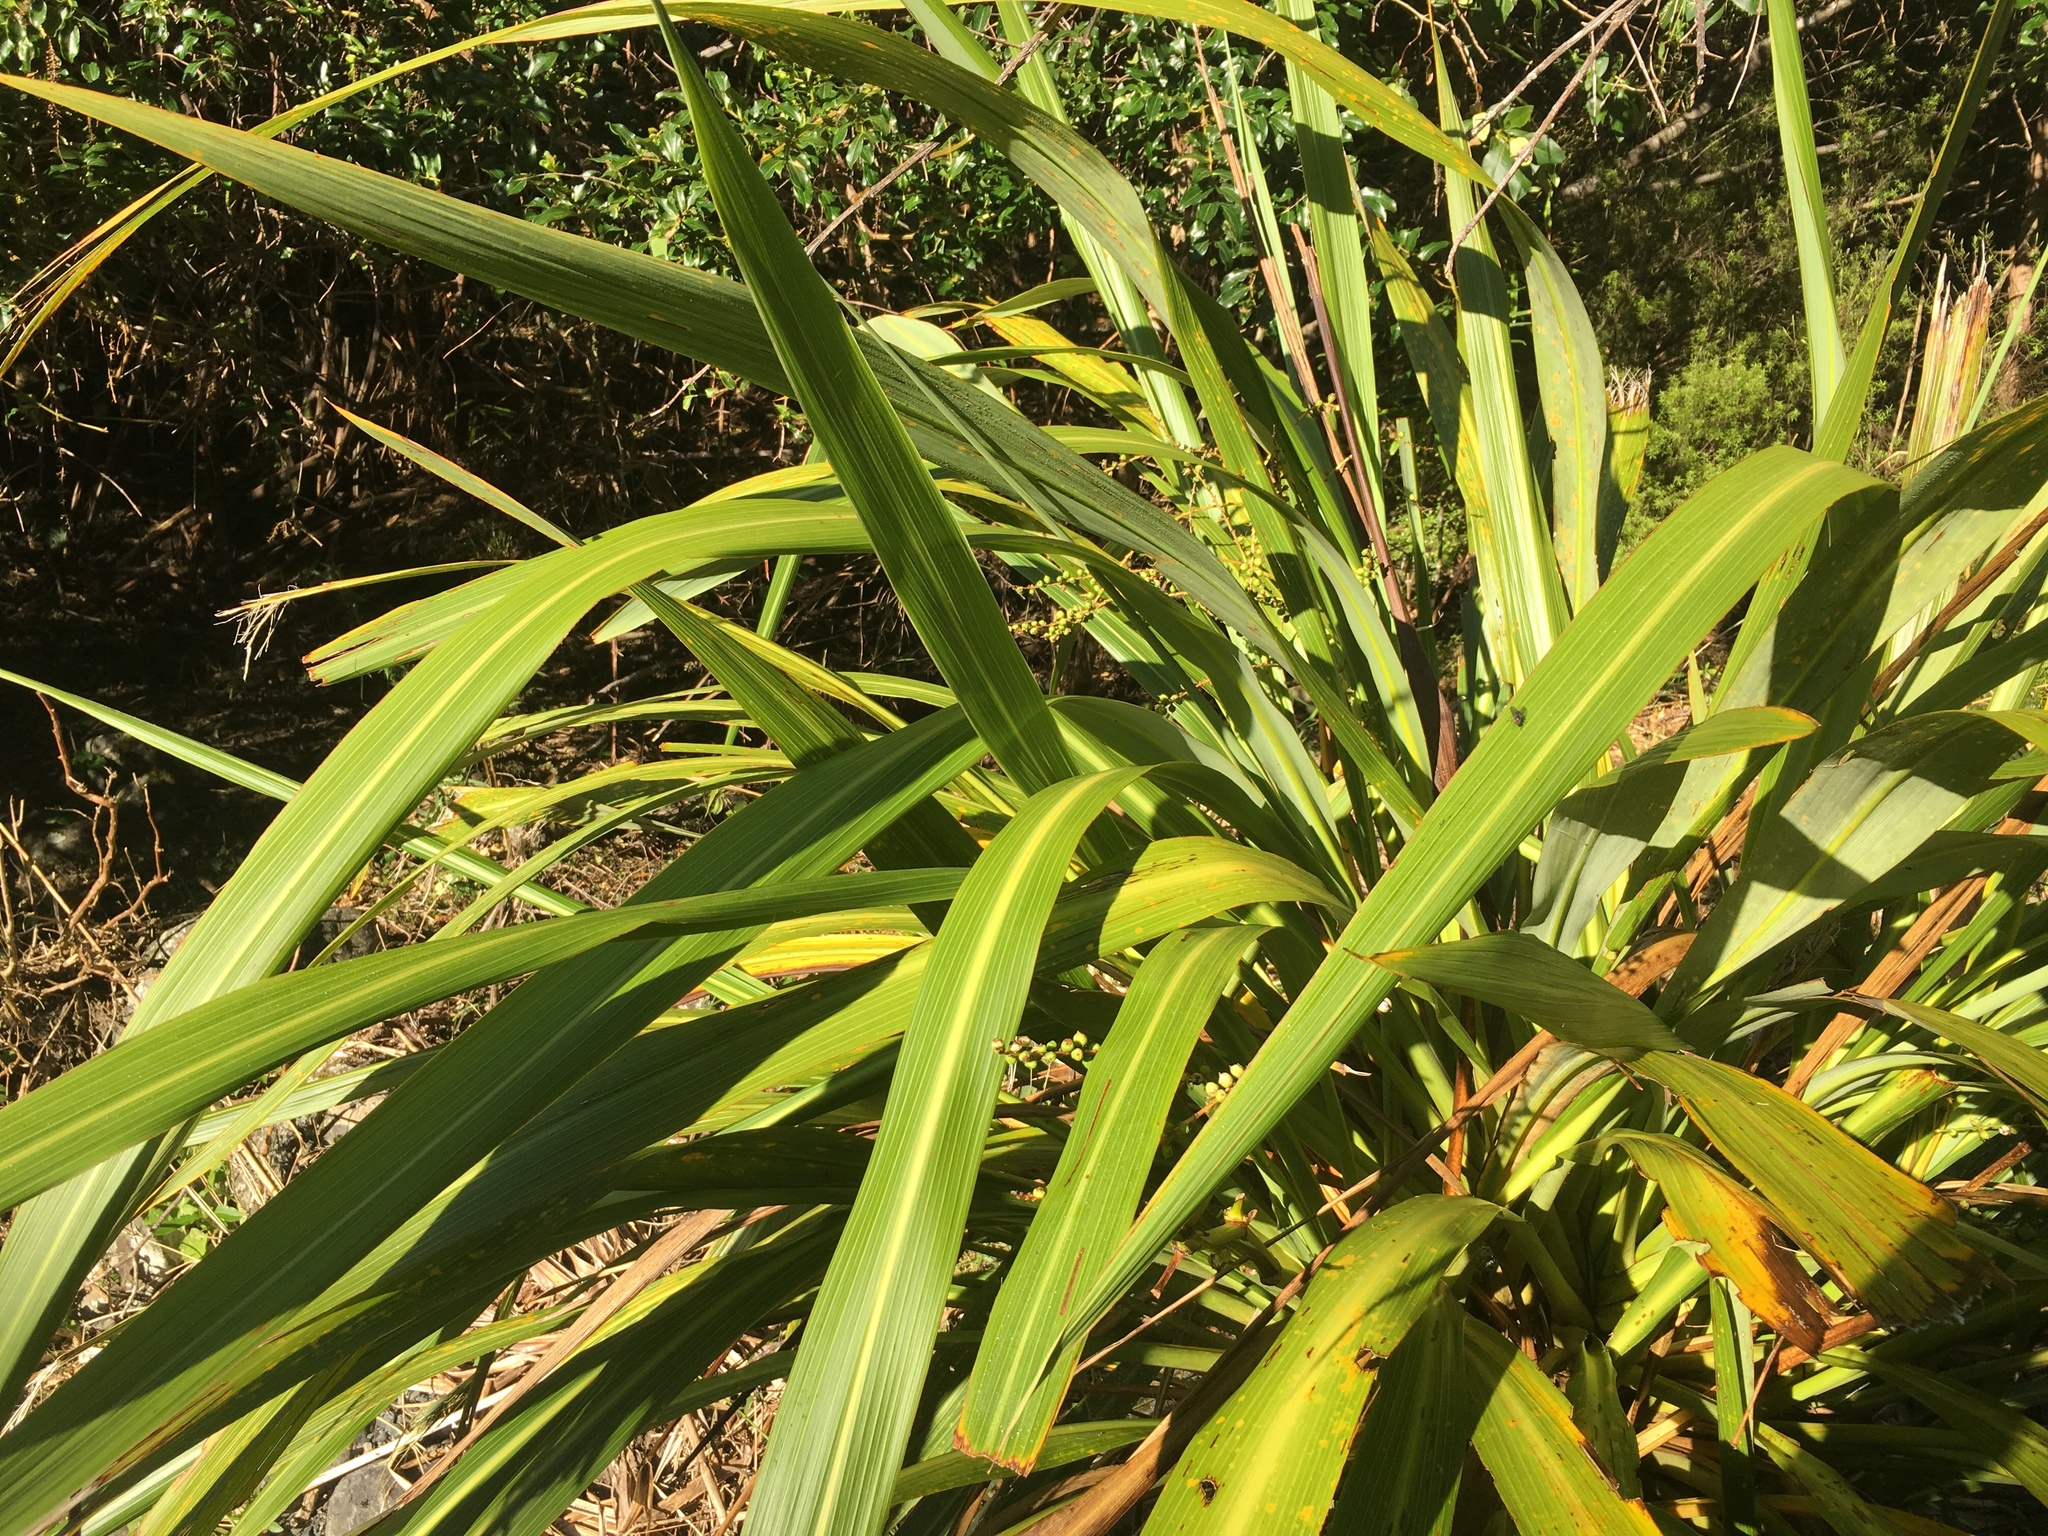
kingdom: Plantae
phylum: Tracheophyta
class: Liliopsida
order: Asparagales
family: Asparagaceae
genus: Cordyline
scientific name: Cordyline banksii
